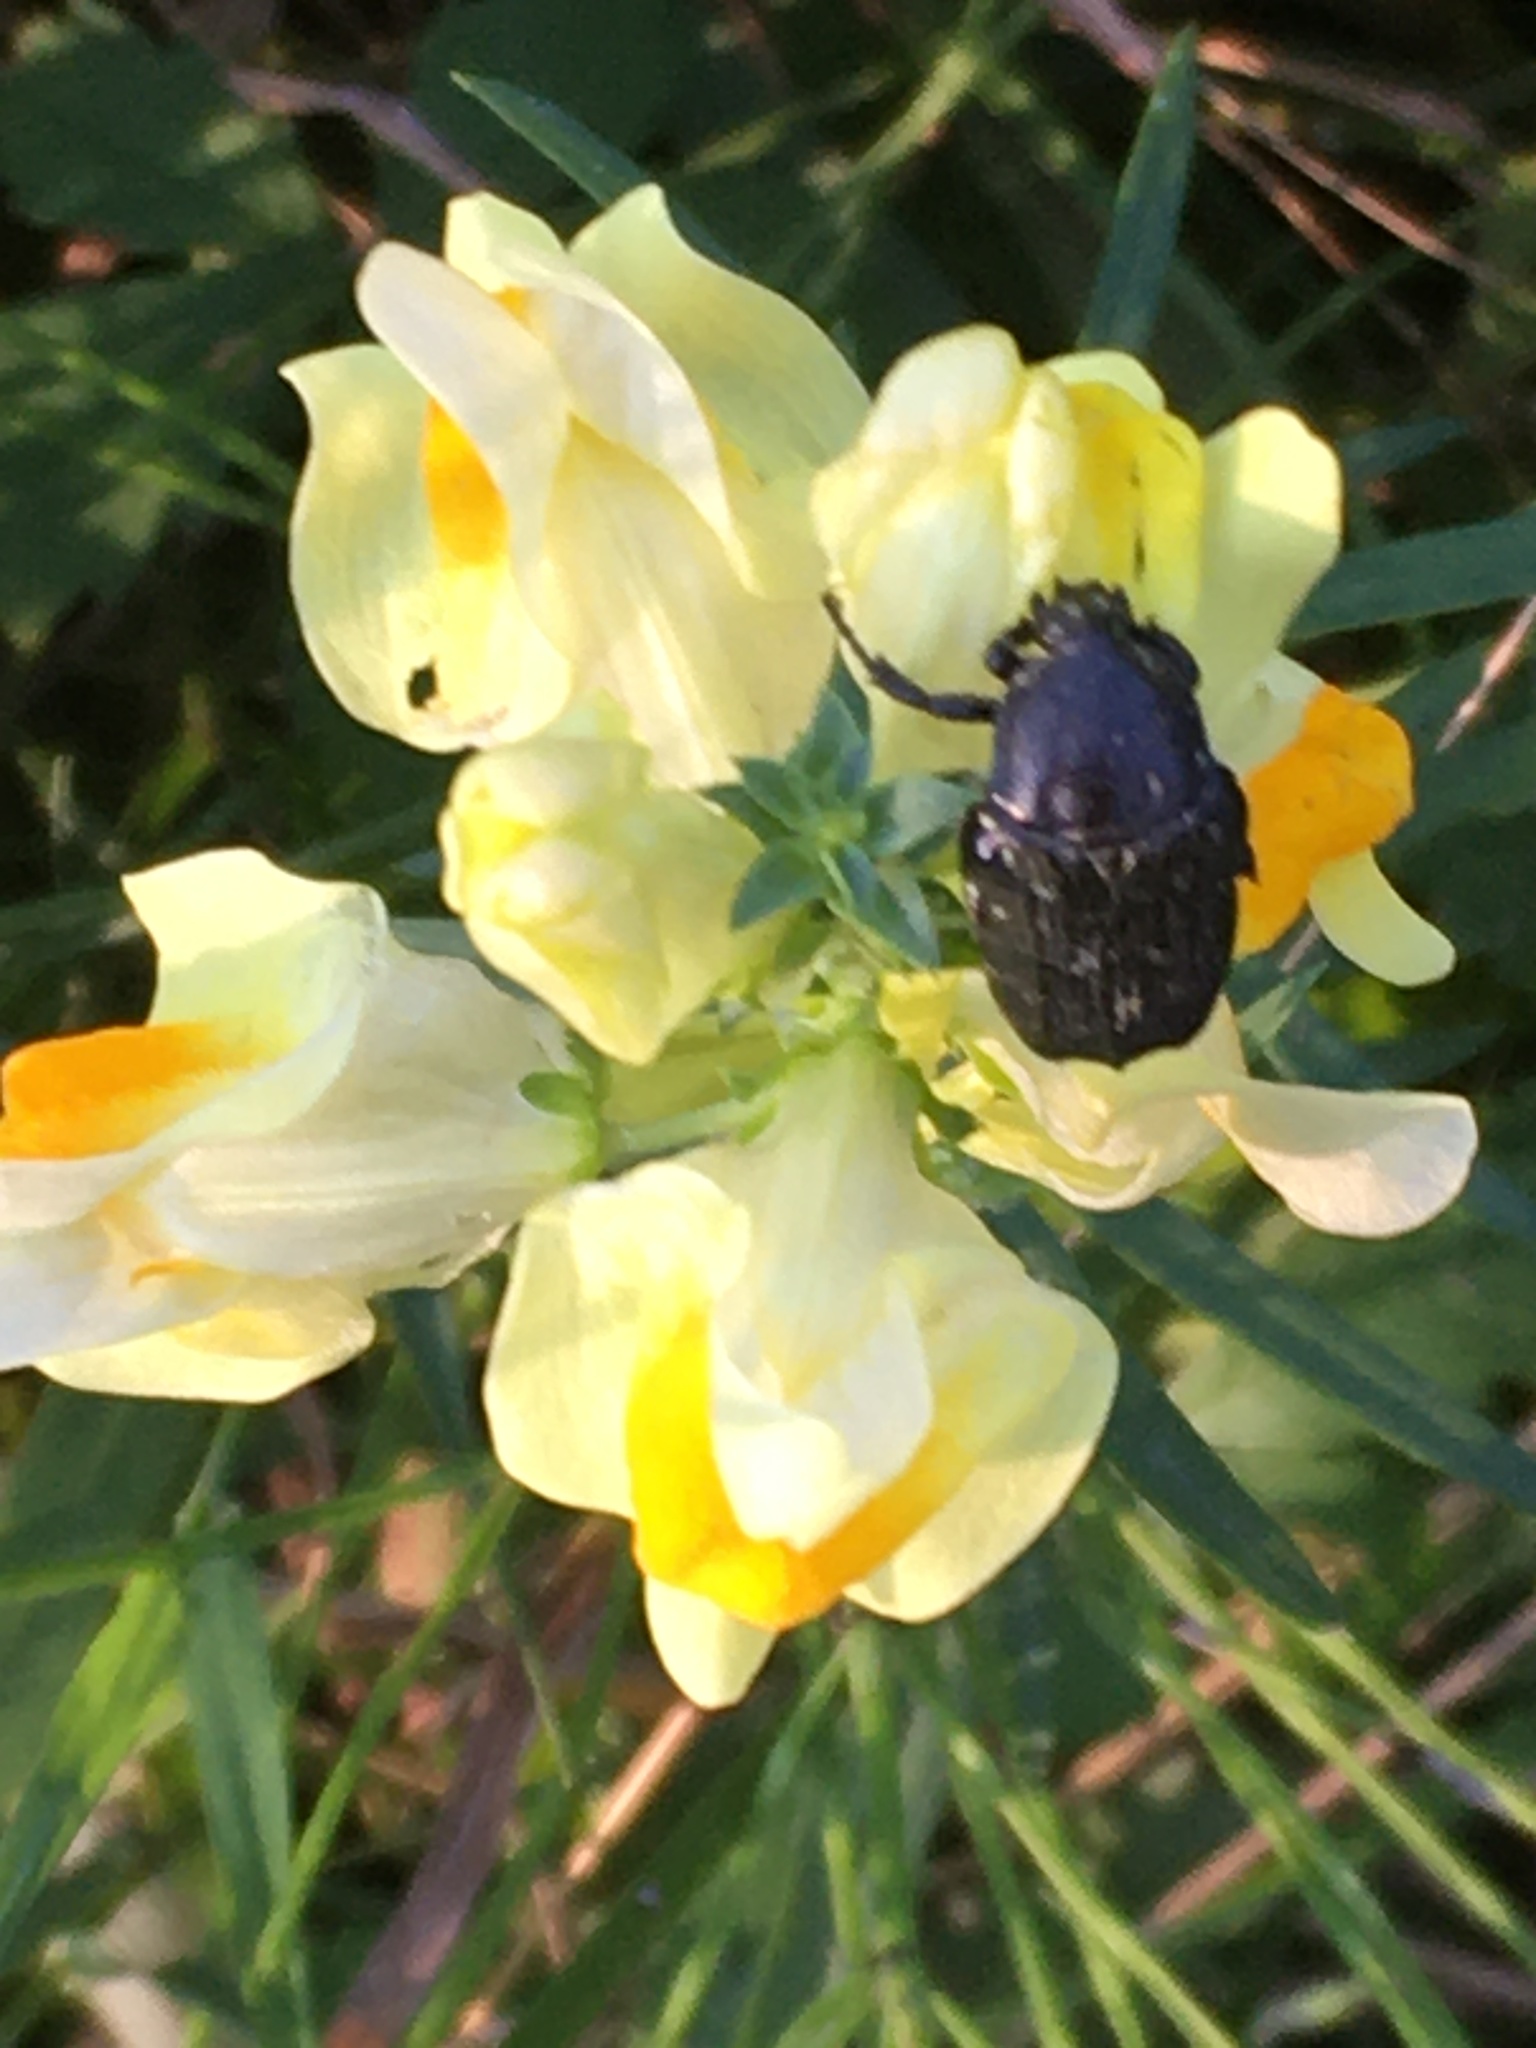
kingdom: Animalia
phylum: Arthropoda
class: Insecta
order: Coleoptera
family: Scarabaeidae
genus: Oxythyrea
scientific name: Oxythyrea funesta
